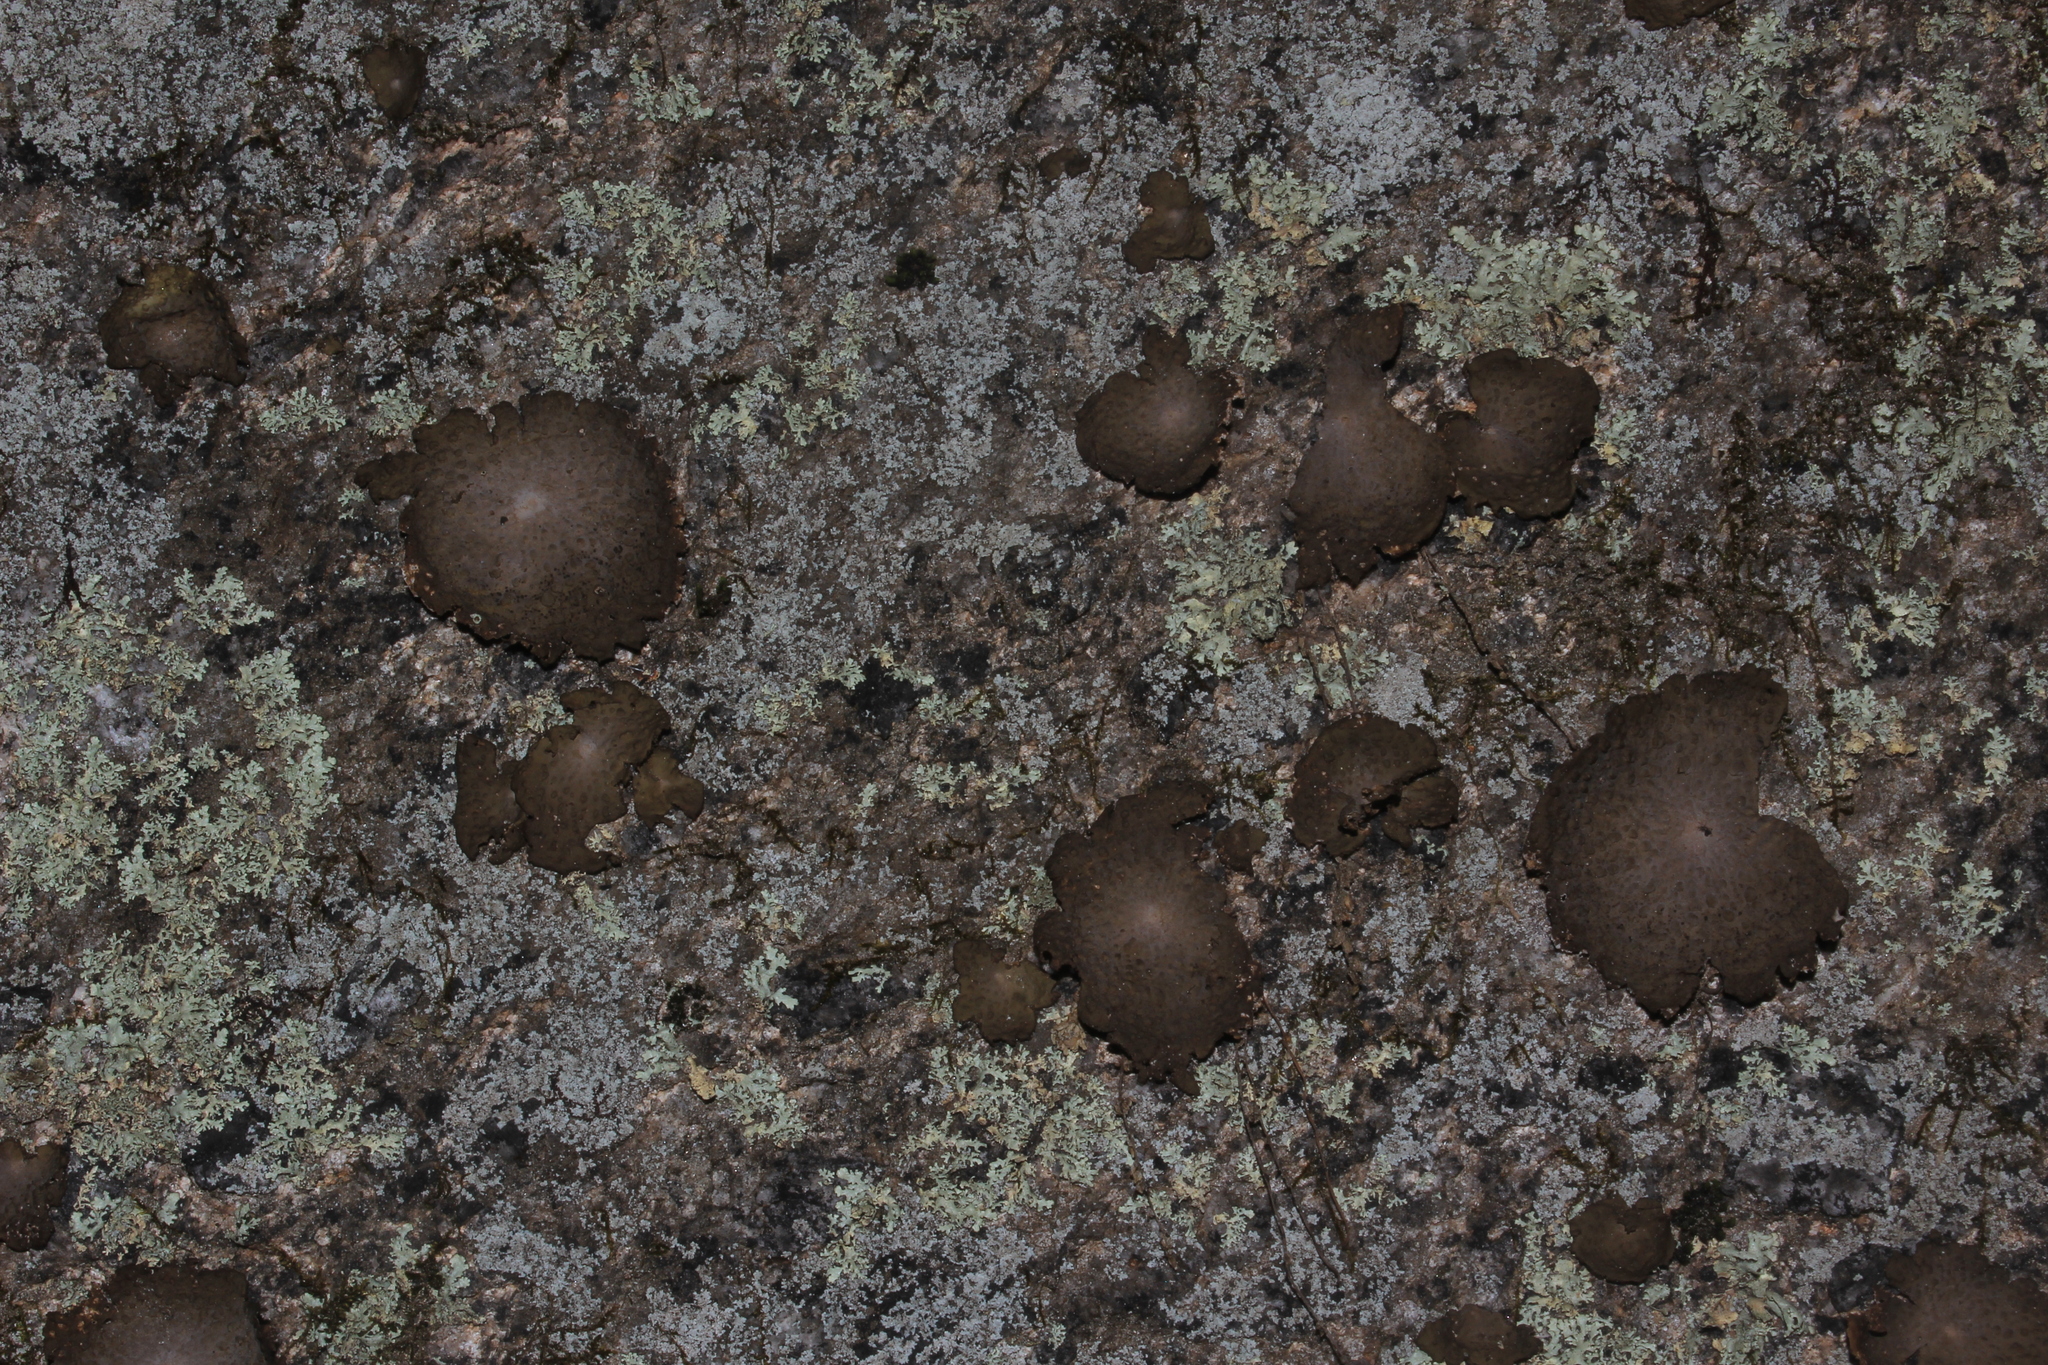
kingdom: Fungi
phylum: Ascomycota
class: Lecanoromycetes
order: Umbilicariales
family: Umbilicariaceae
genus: Lasallia
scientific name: Lasallia papulosa
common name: Common toadskin lichen
